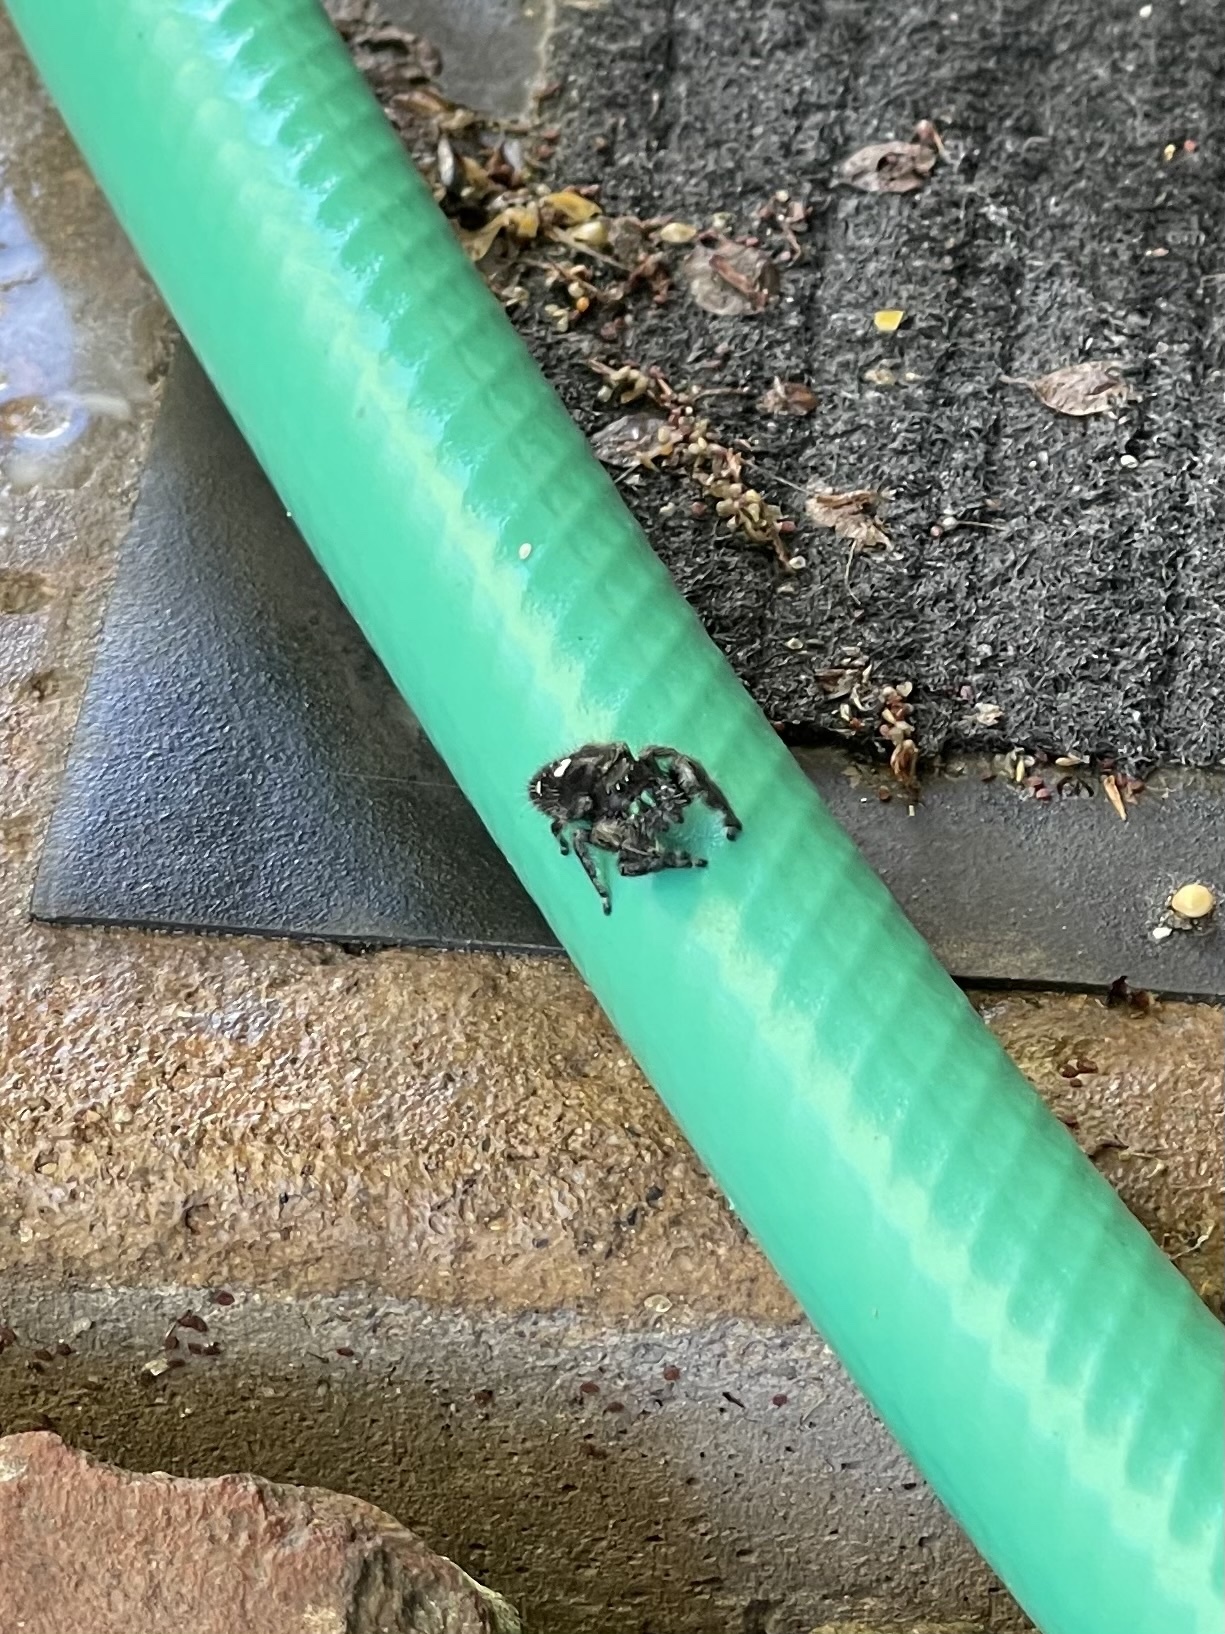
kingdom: Animalia
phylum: Arthropoda
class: Arachnida
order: Araneae
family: Salticidae
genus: Phidippus
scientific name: Phidippus audax
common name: Bold jumper
